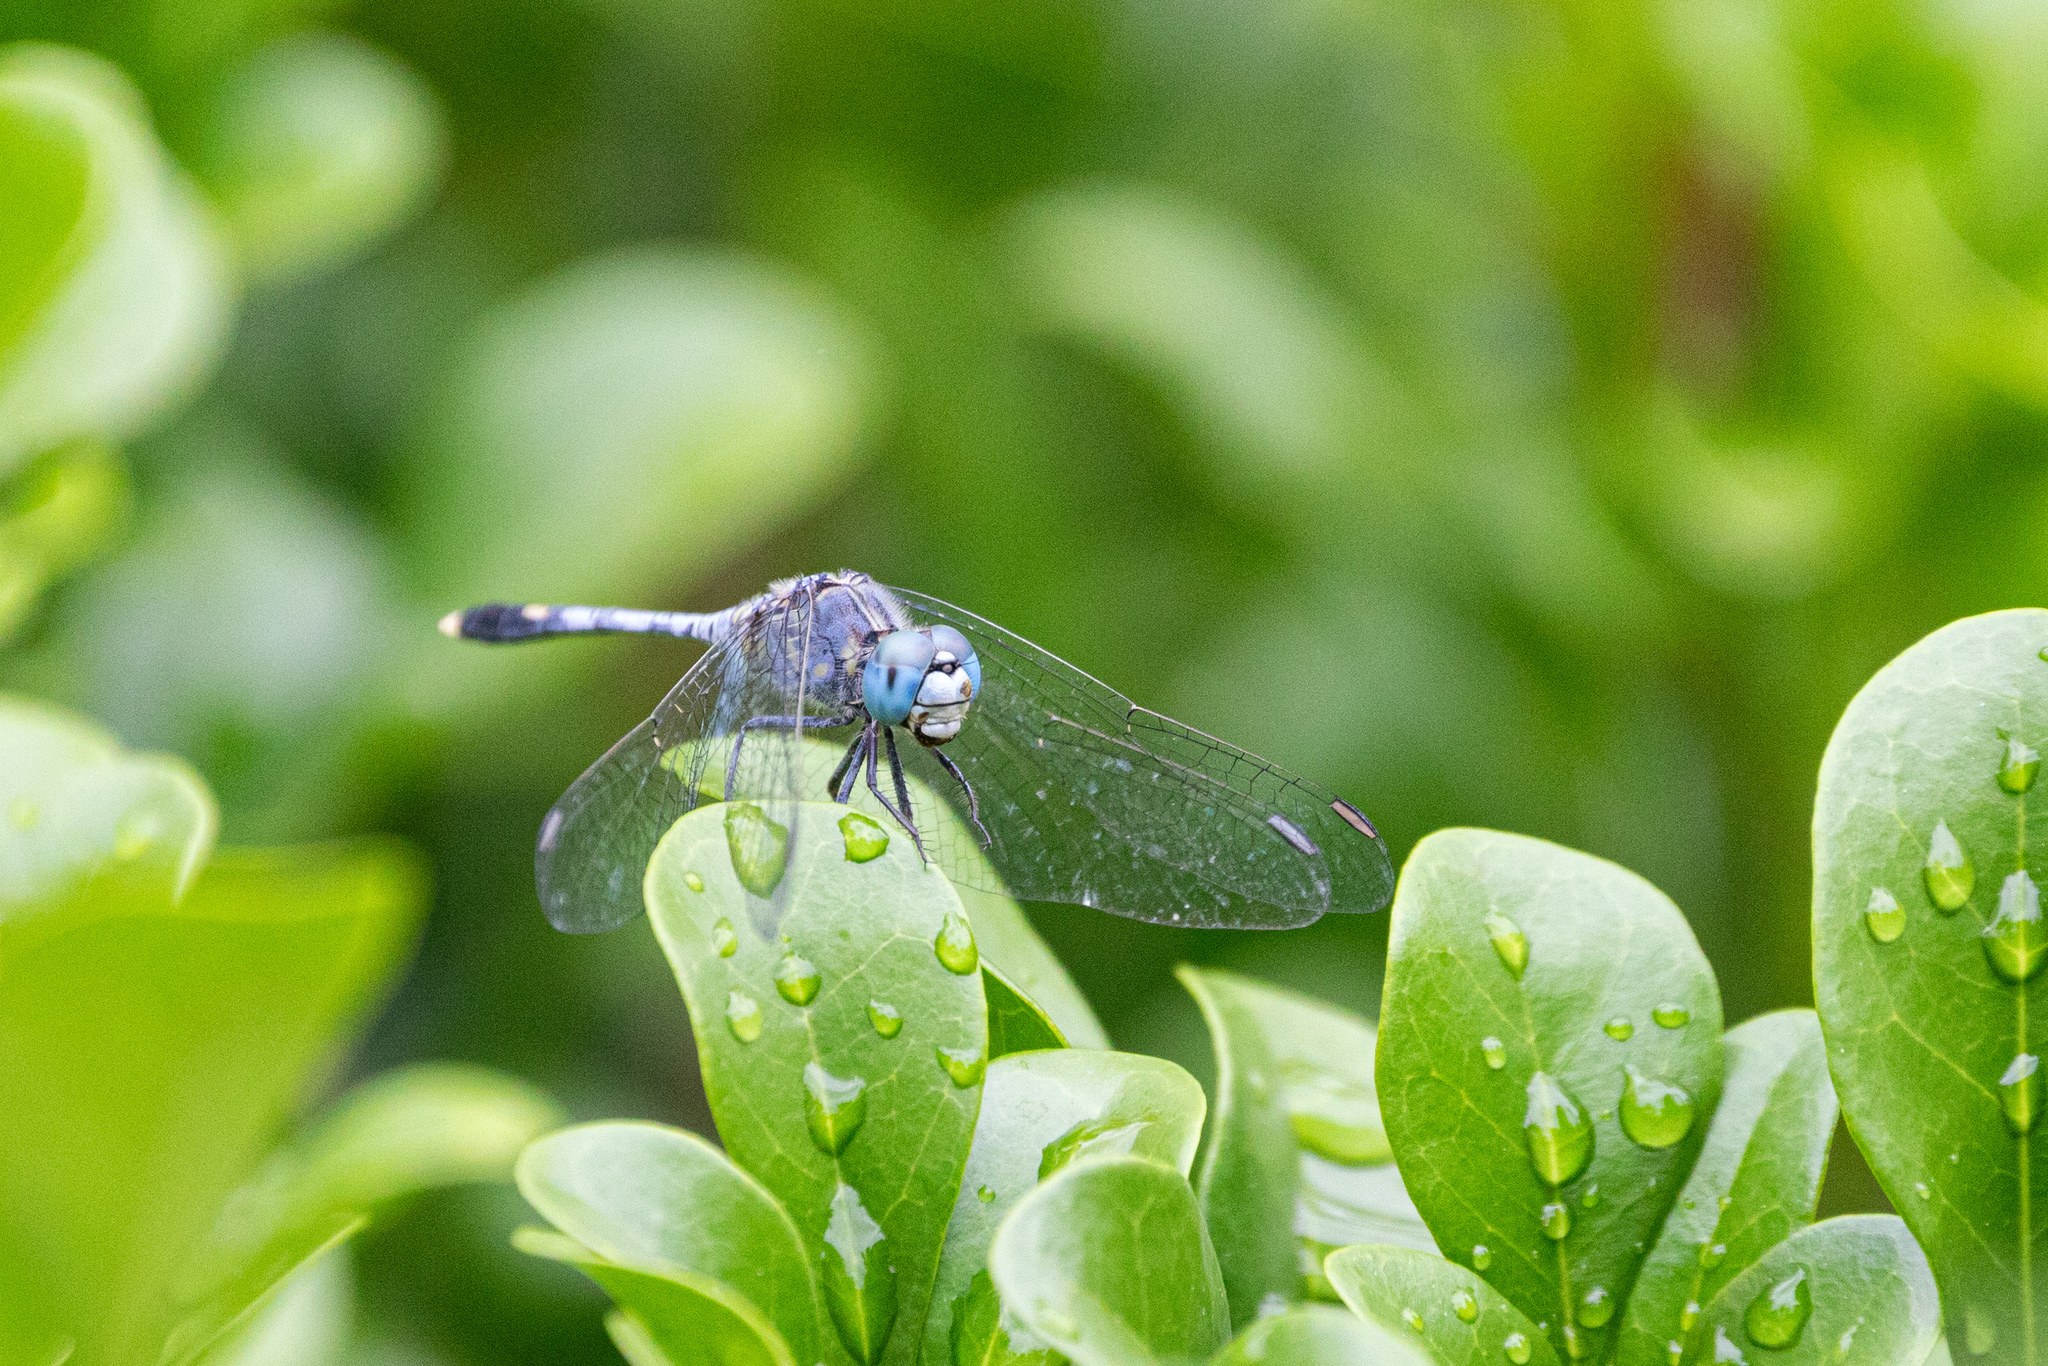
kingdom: Animalia
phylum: Arthropoda
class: Insecta
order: Odonata
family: Libellulidae
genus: Diplacodes
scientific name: Diplacodes trivialis
